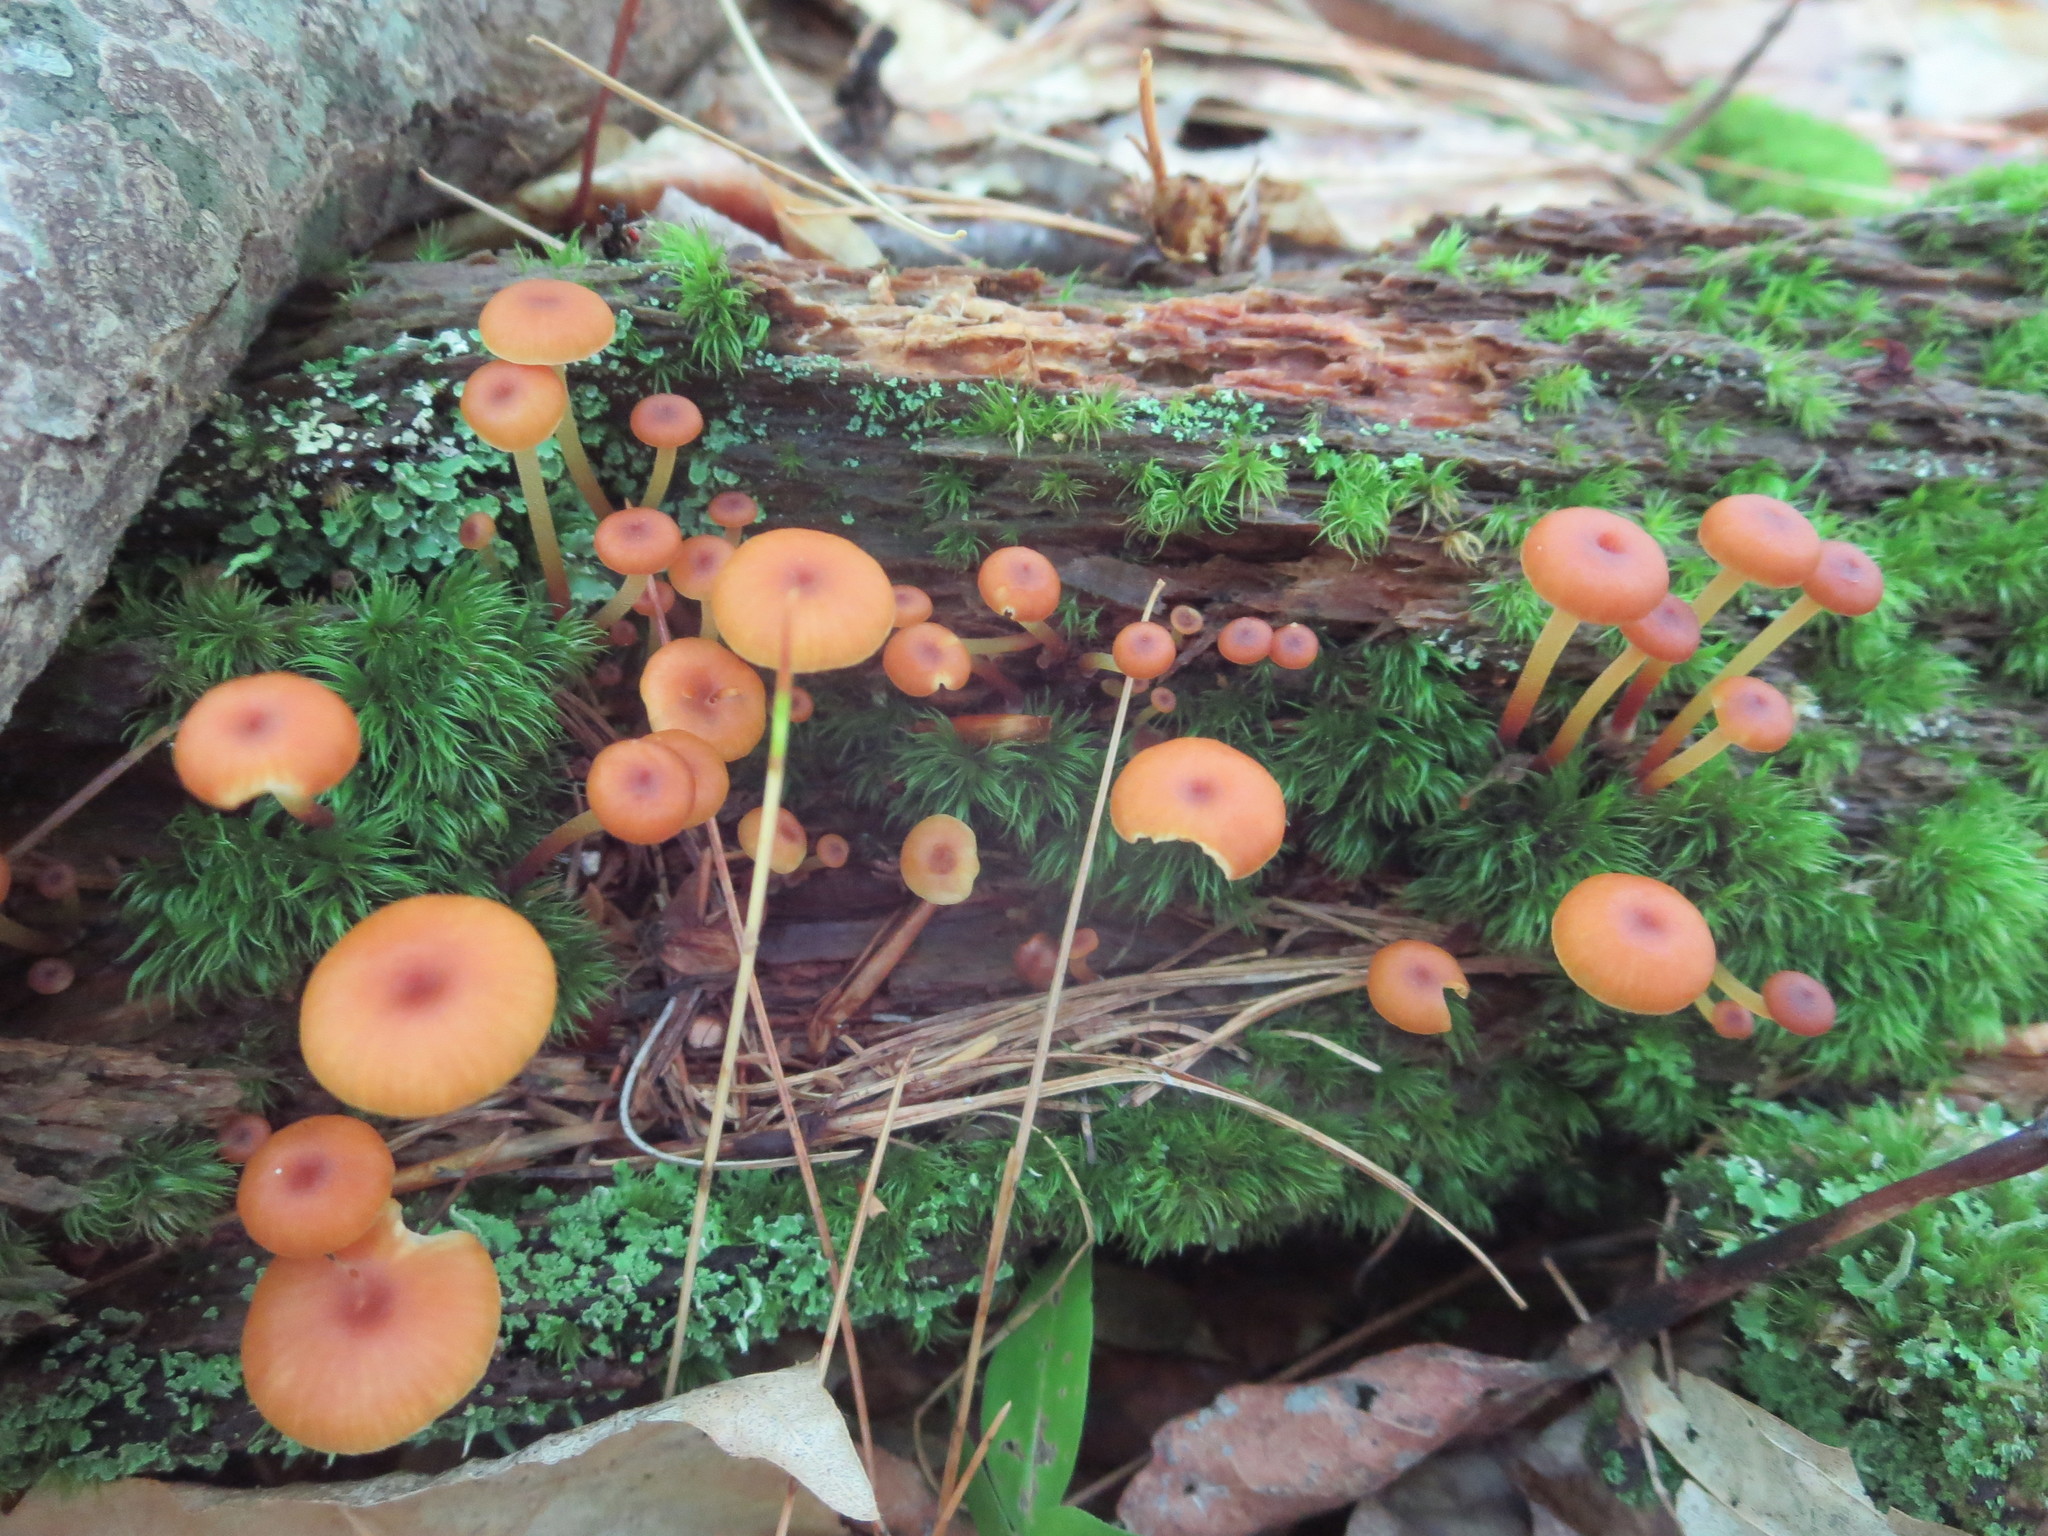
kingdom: Fungi
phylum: Basidiomycota
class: Agaricomycetes
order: Agaricales
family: Mycenaceae
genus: Xeromphalina
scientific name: Xeromphalina campanella
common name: Pinewood gingertail
